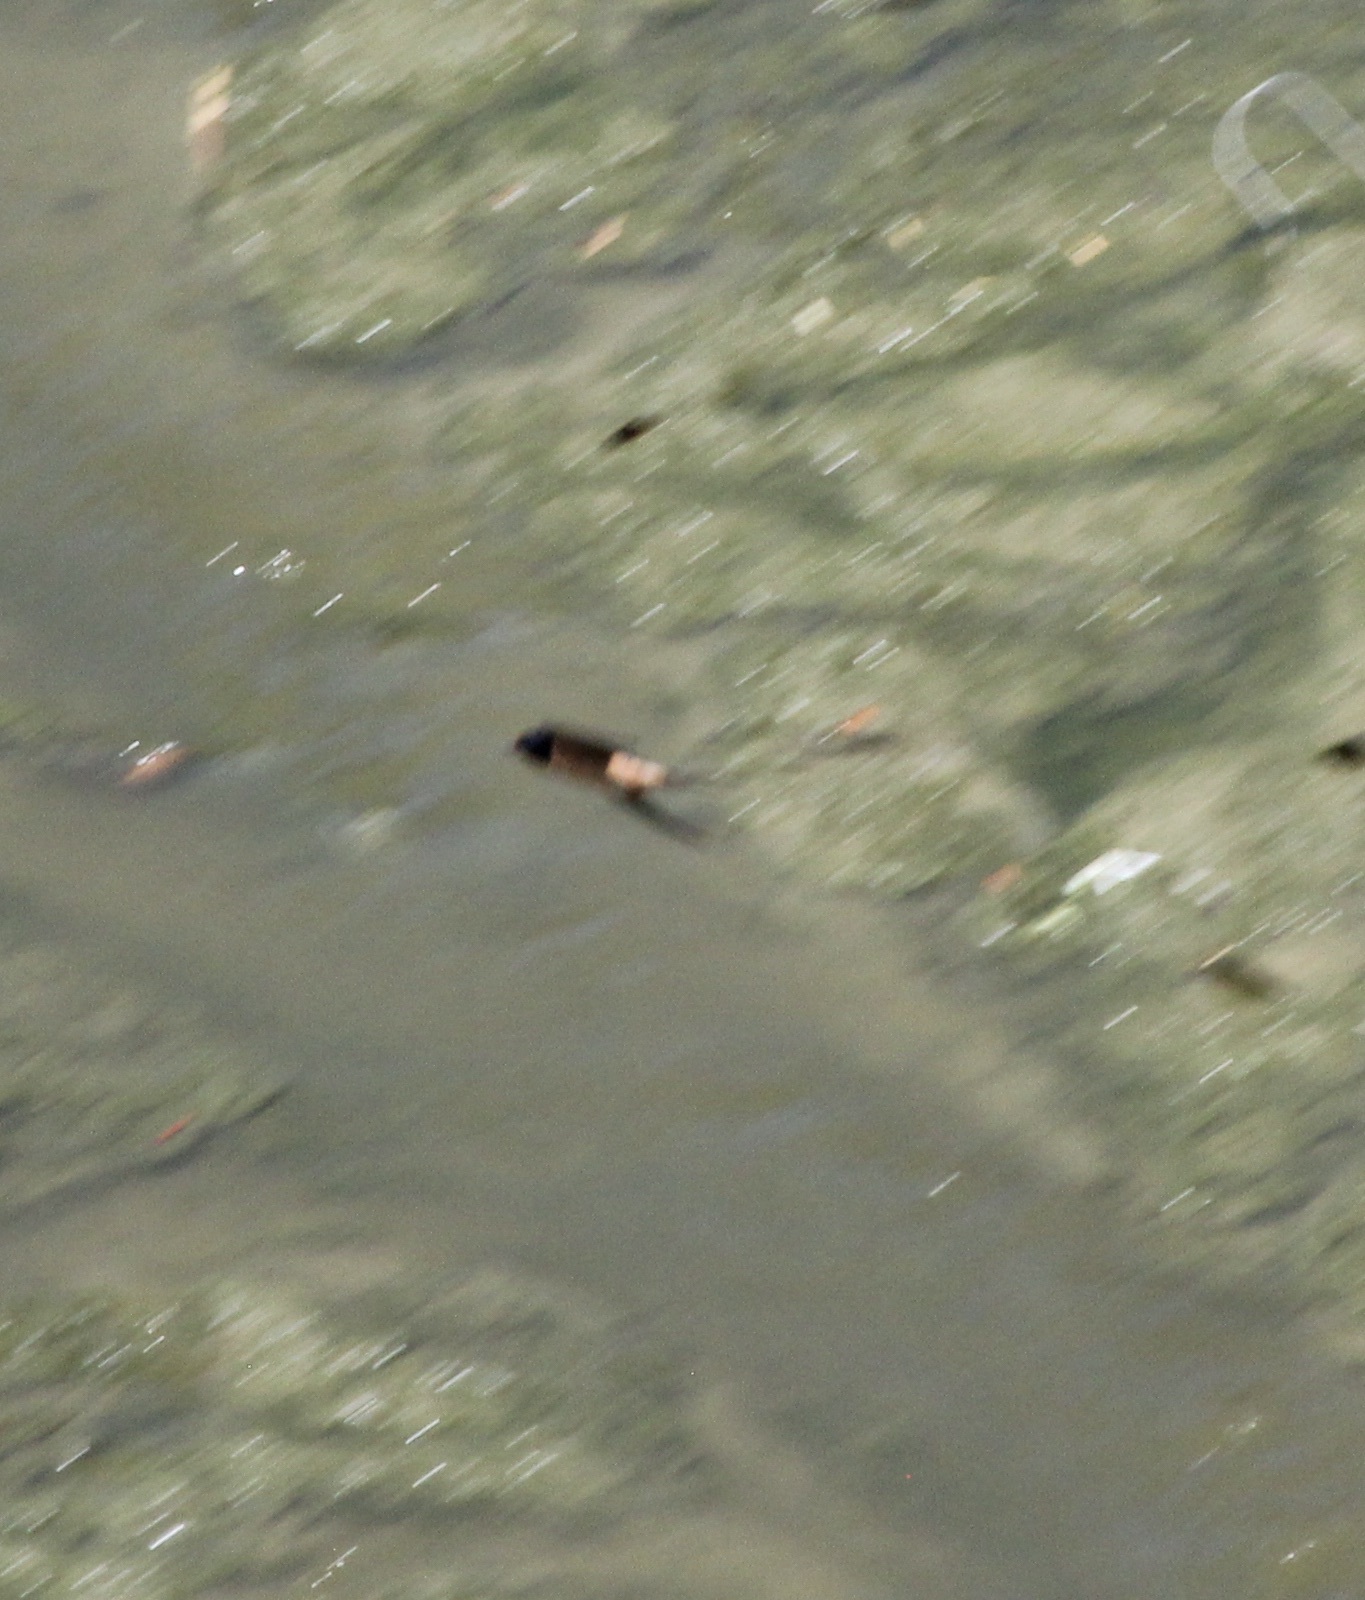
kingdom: Animalia
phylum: Chordata
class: Aves
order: Passeriformes
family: Hirundinidae
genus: Hirundo
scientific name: Hirundo rustica
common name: Barn swallow
